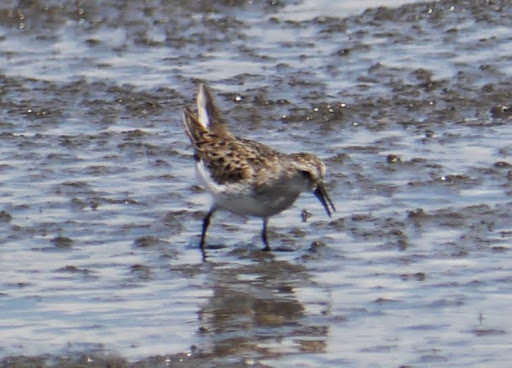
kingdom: Animalia
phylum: Chordata
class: Aves
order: Charadriiformes
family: Scolopacidae
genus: Calidris
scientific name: Calidris pusilla
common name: Semipalmated sandpiper
